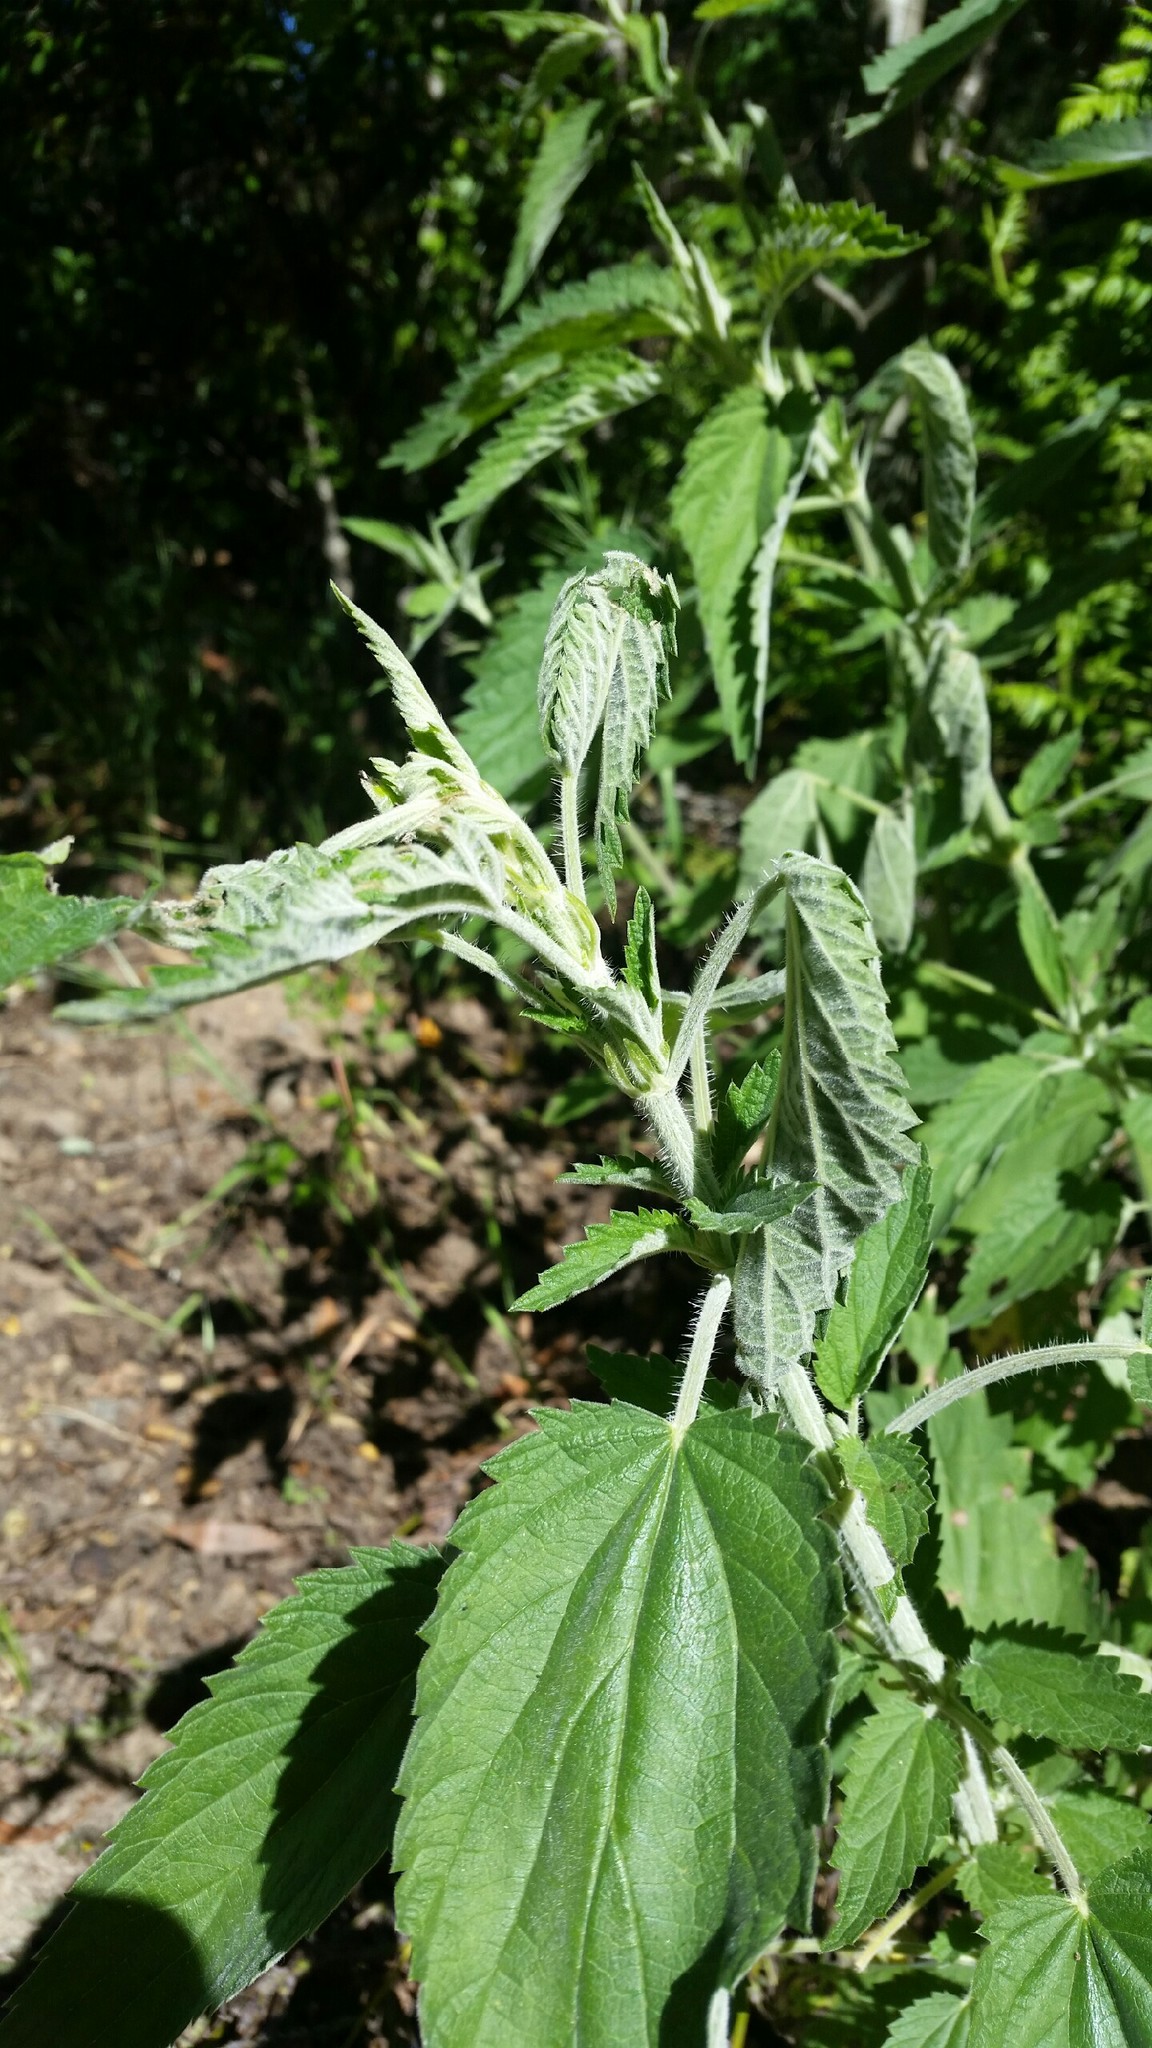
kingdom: Plantae
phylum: Tracheophyta
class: Magnoliopsida
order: Rosales
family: Urticaceae
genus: Urtica
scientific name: Urtica gracilis
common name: Slender stinging nettle
